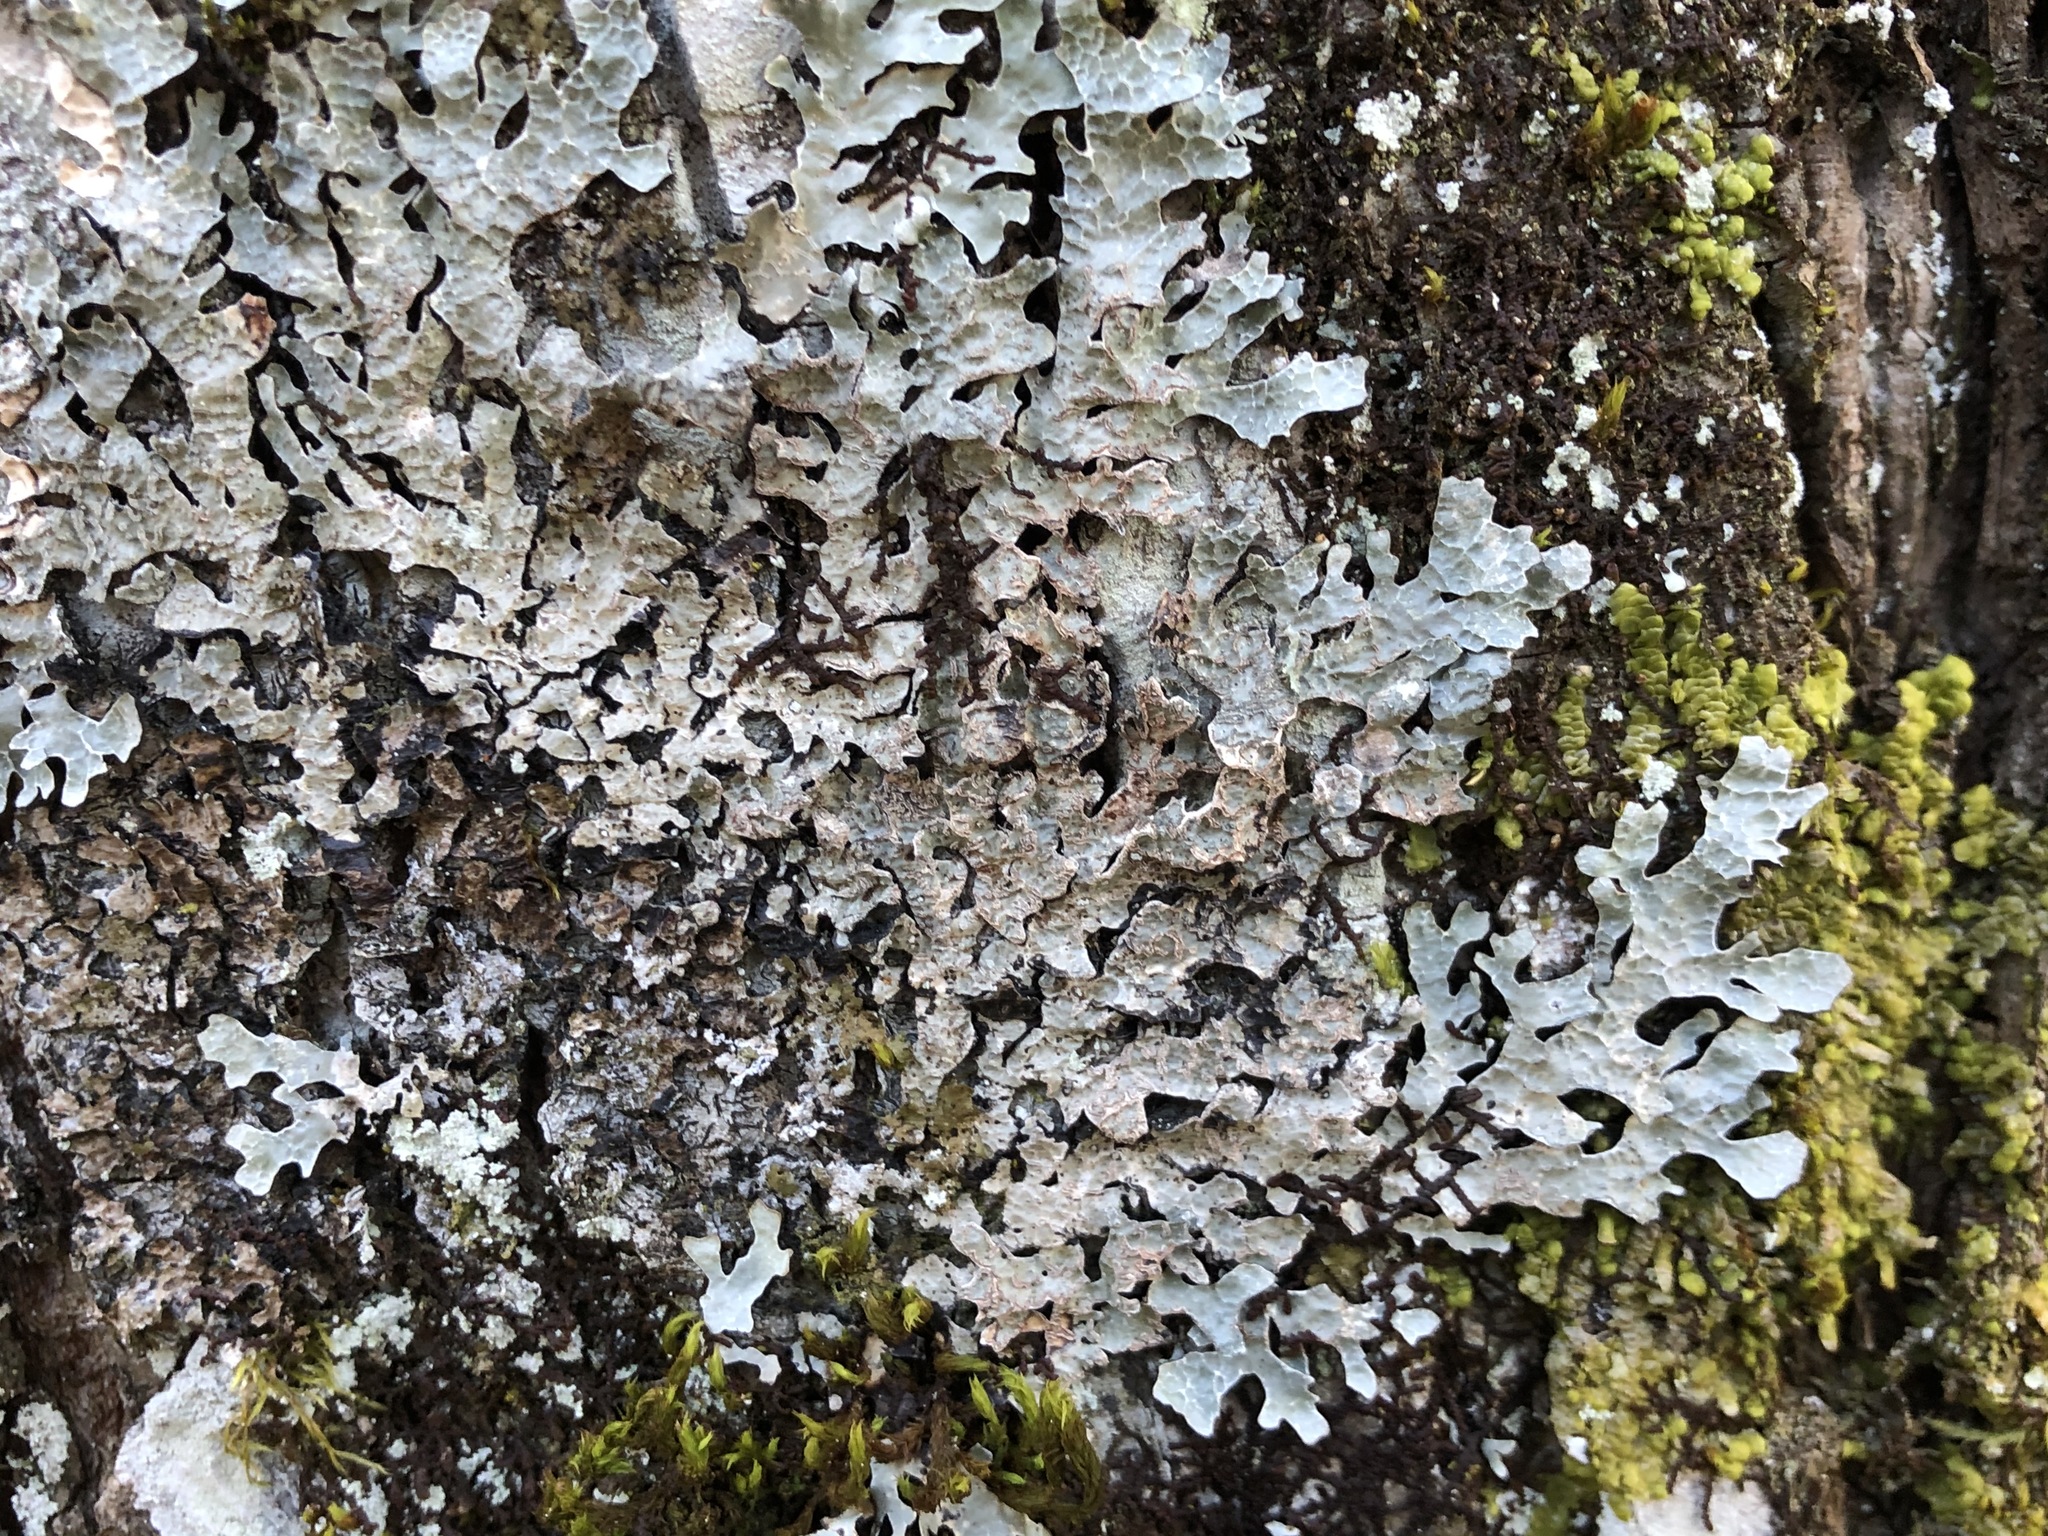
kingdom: Fungi
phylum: Ascomycota
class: Lecanoromycetes
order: Lecanorales
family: Parmeliaceae
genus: Parmelia
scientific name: Parmelia sulcata
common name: Netted shield lichen
